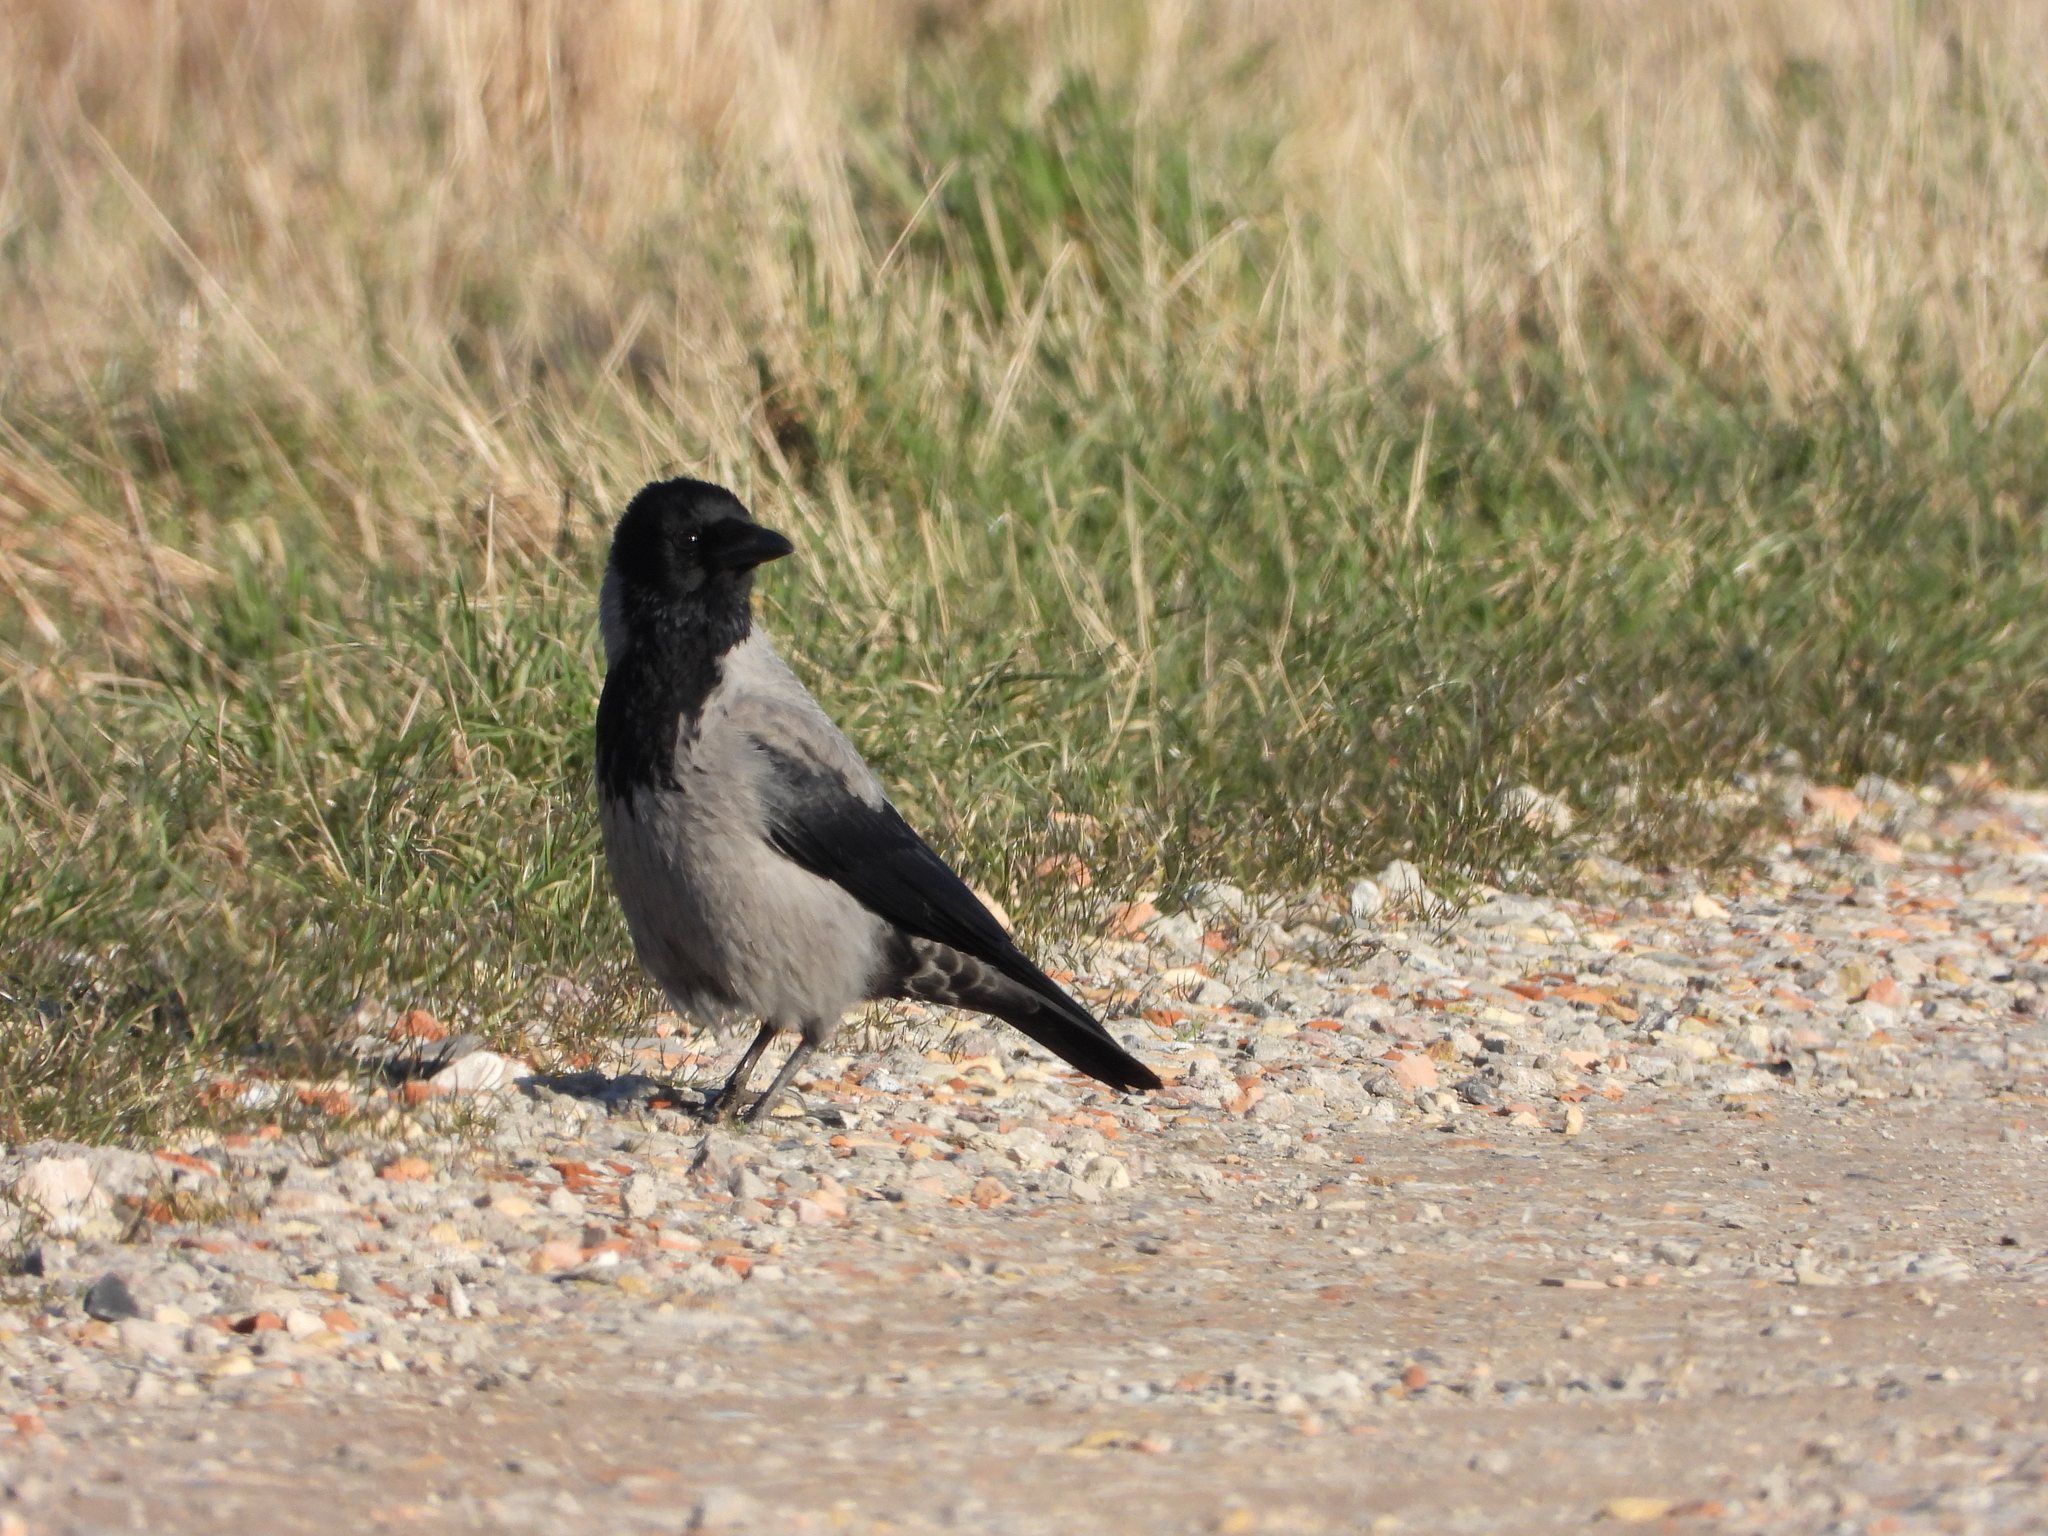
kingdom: Animalia
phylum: Chordata
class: Aves
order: Passeriformes
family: Corvidae
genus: Corvus
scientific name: Corvus cornix
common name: Hooded crow
